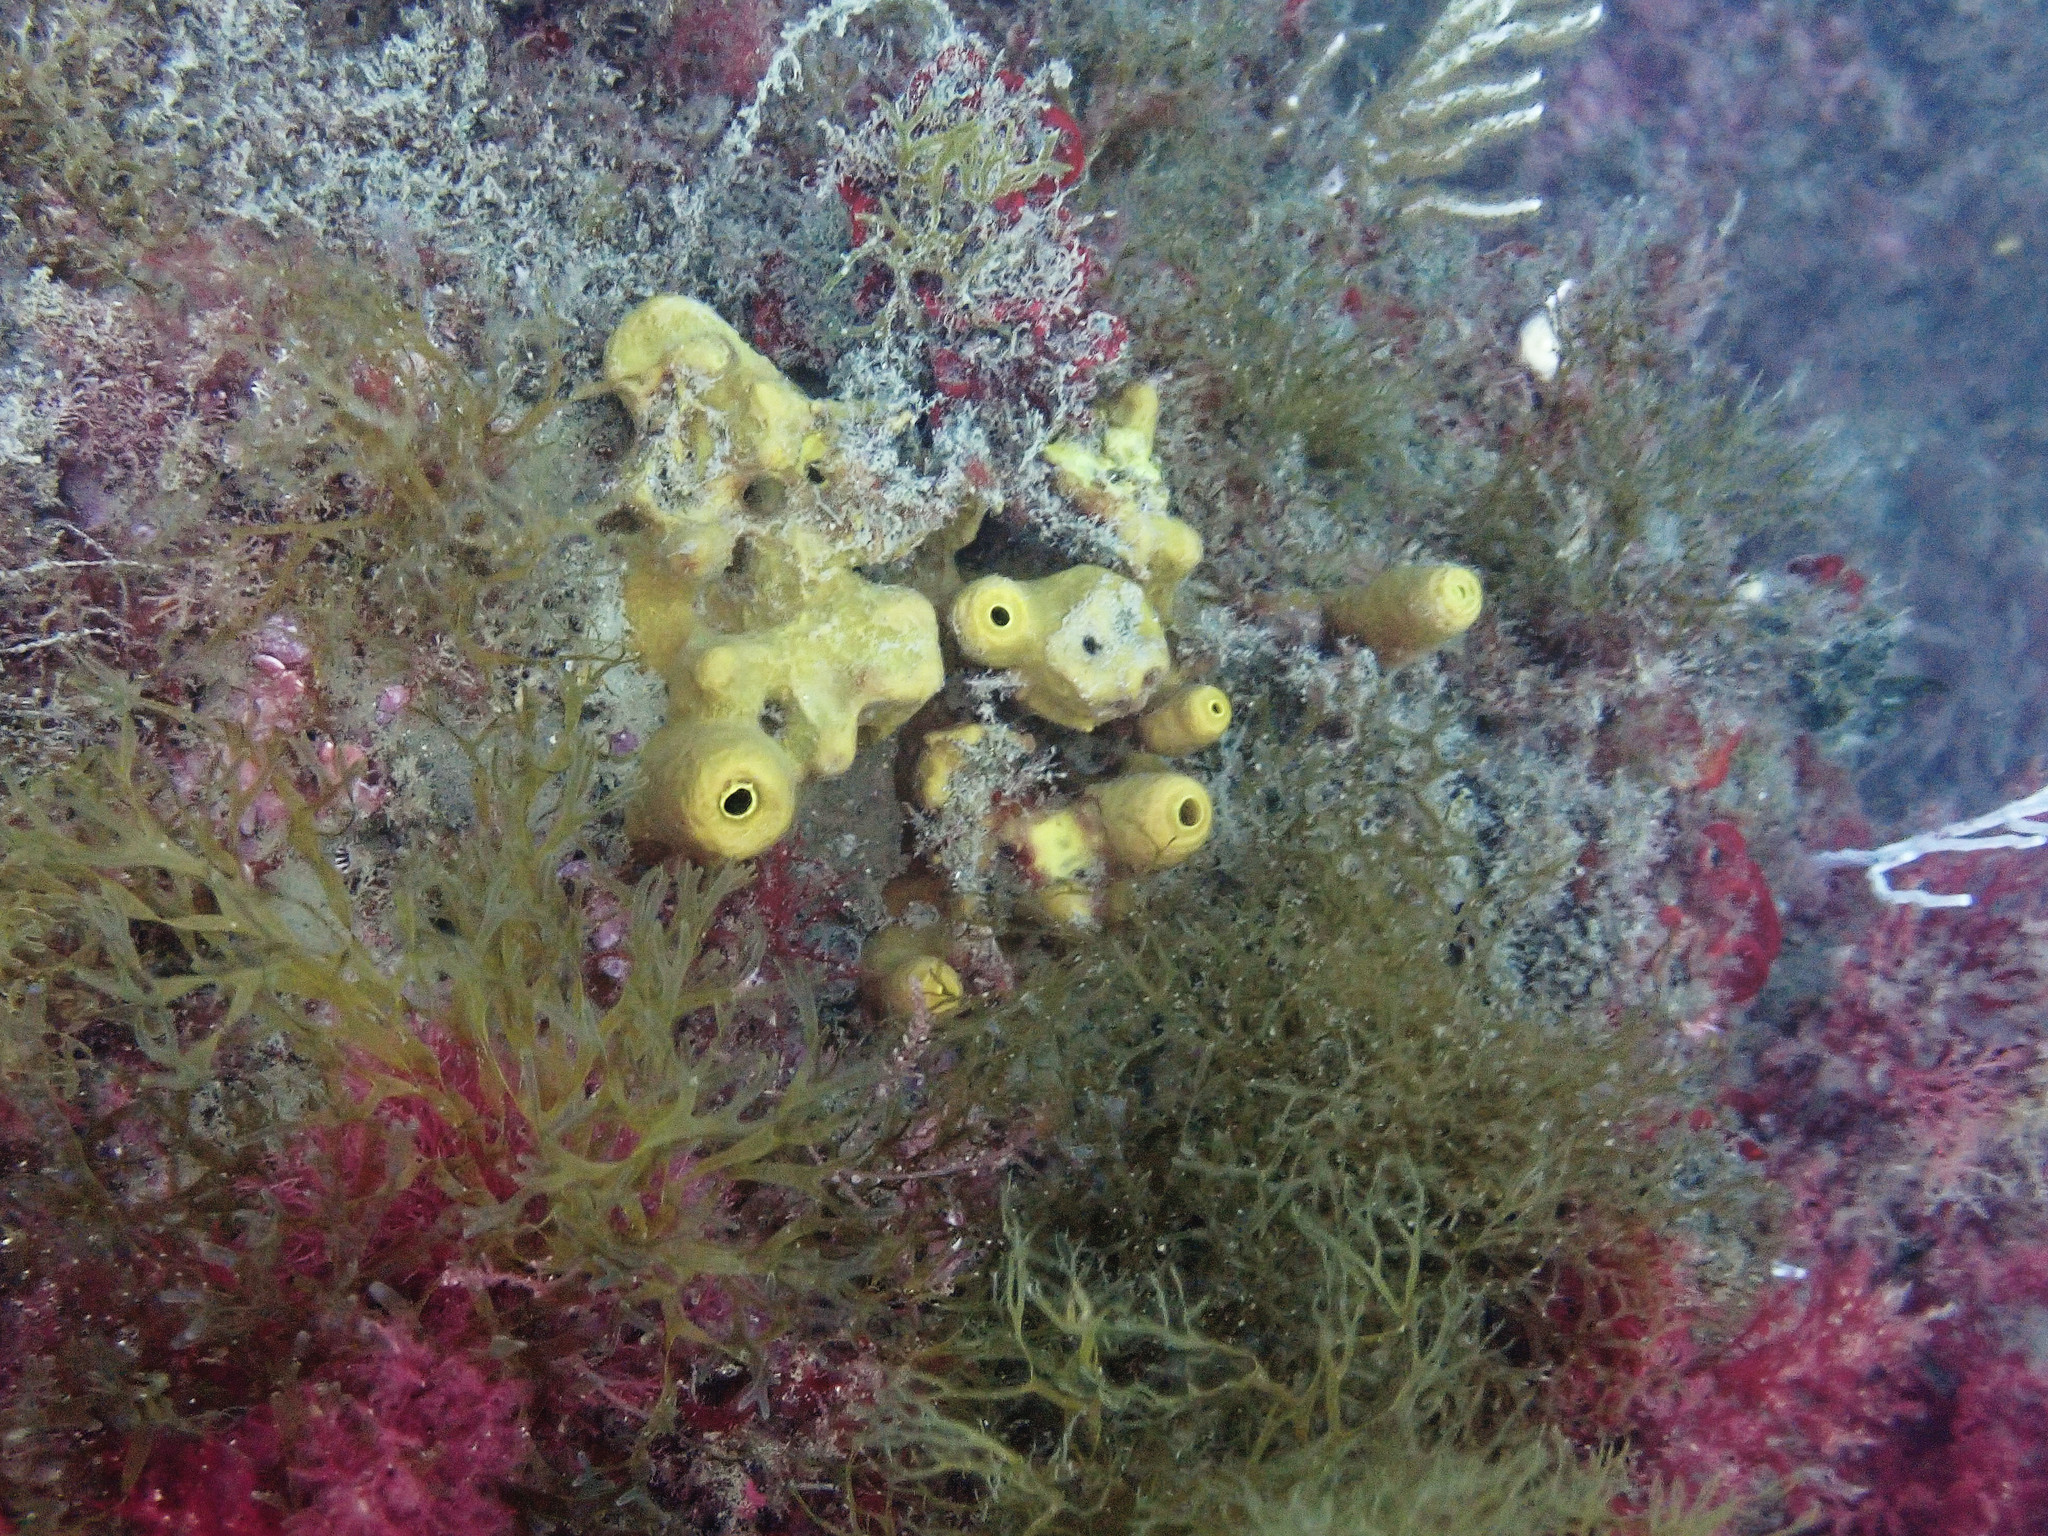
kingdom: Animalia
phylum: Porifera
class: Demospongiae
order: Verongiida
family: Aplysinidae
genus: Aplysina
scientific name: Aplysina aerophoba
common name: Aureate sponge
